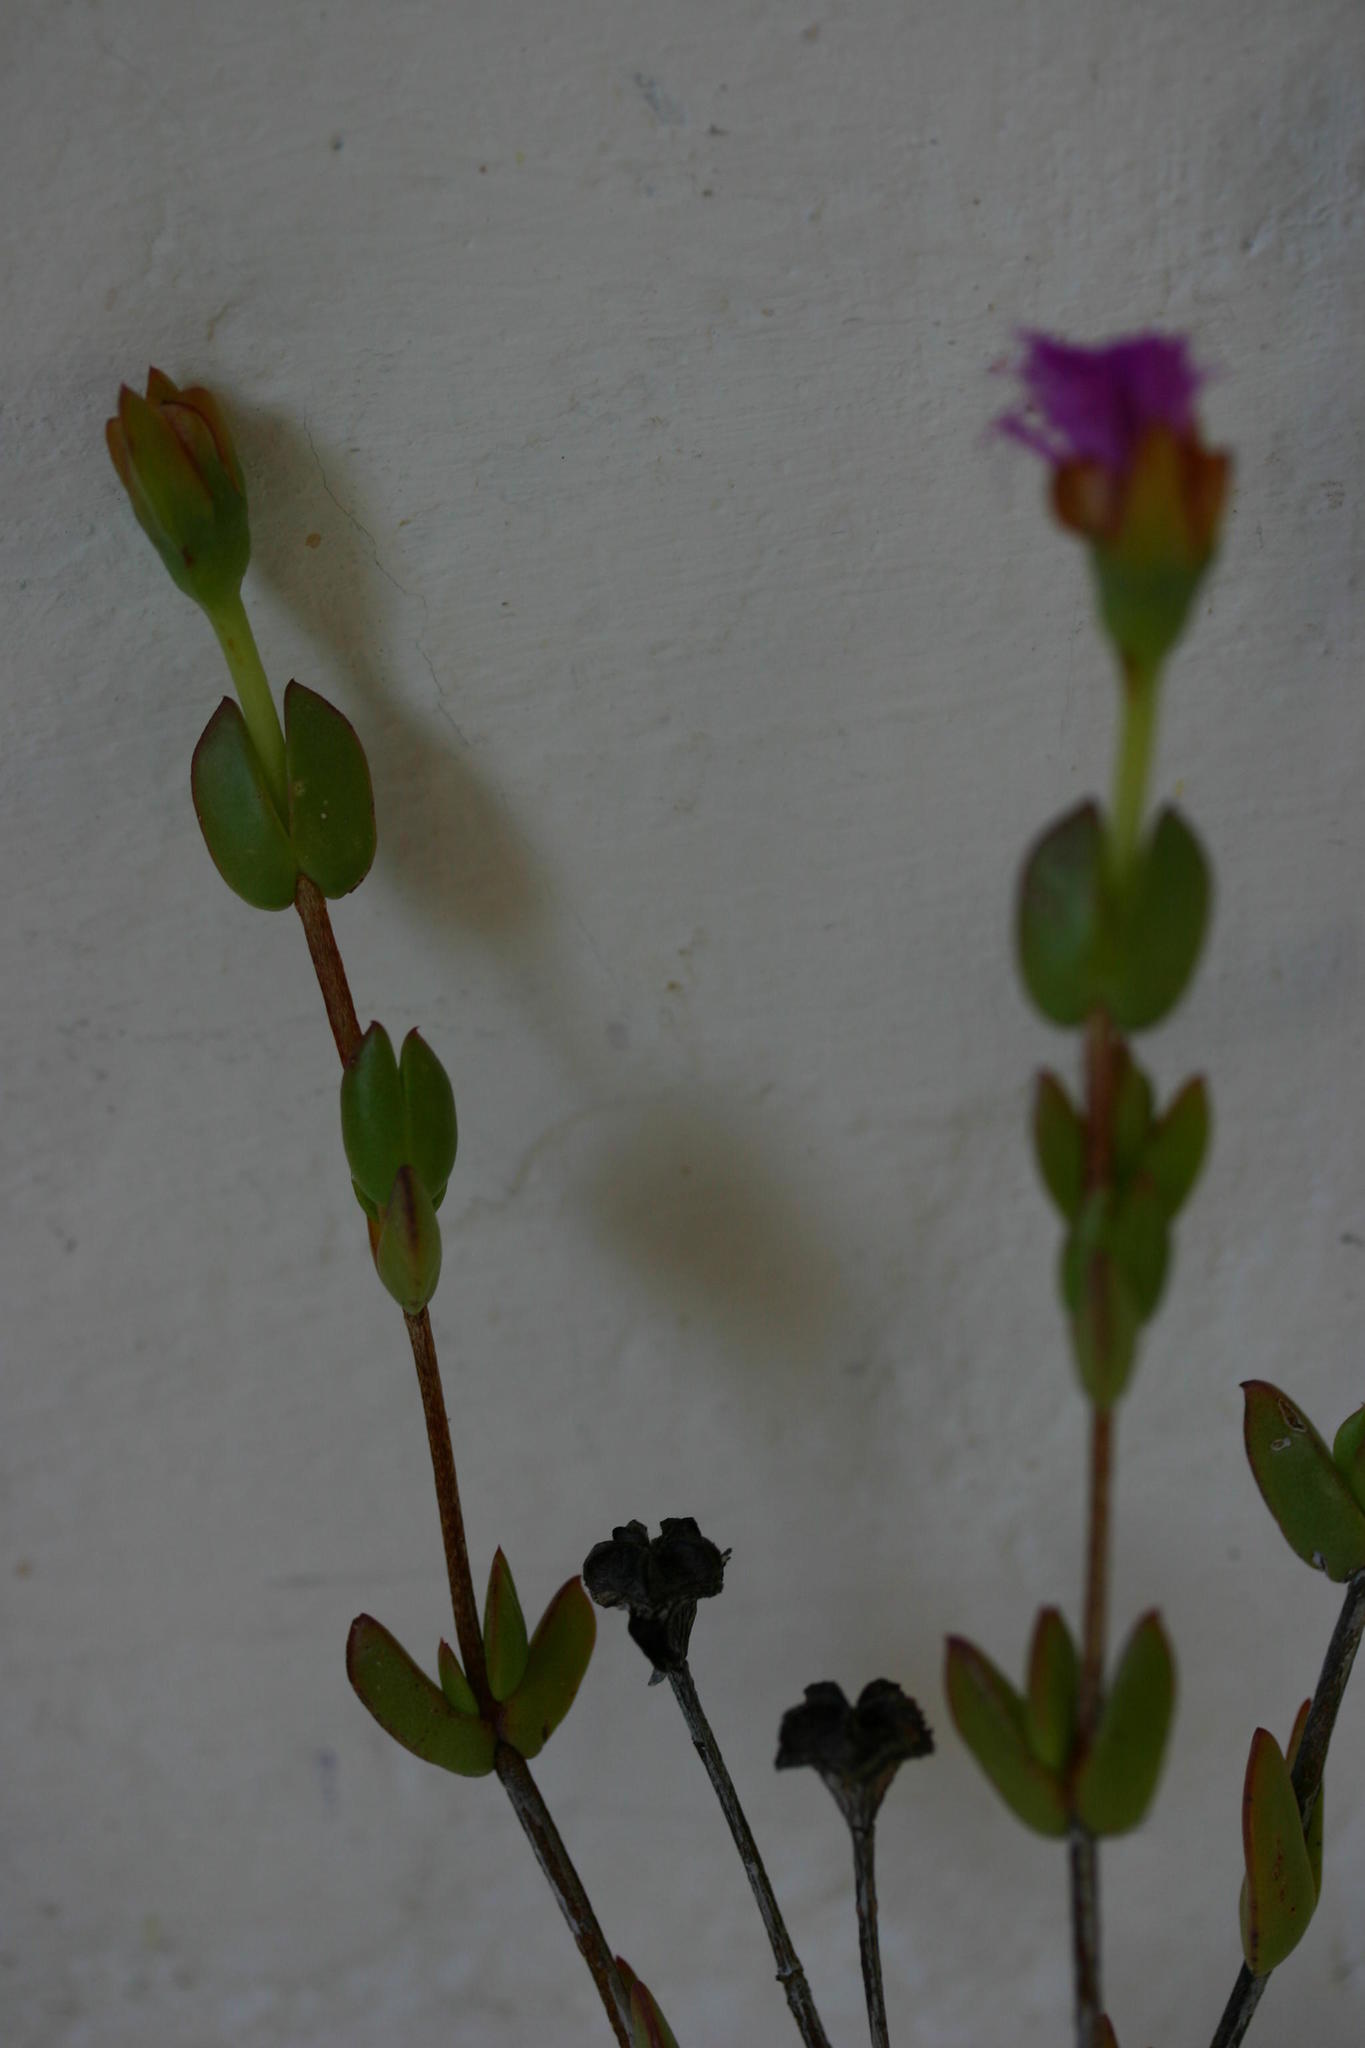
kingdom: Plantae
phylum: Tracheophyta
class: Magnoliopsida
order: Caryophyllales
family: Aizoaceae
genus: Erepsia
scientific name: Erepsia pentagona
